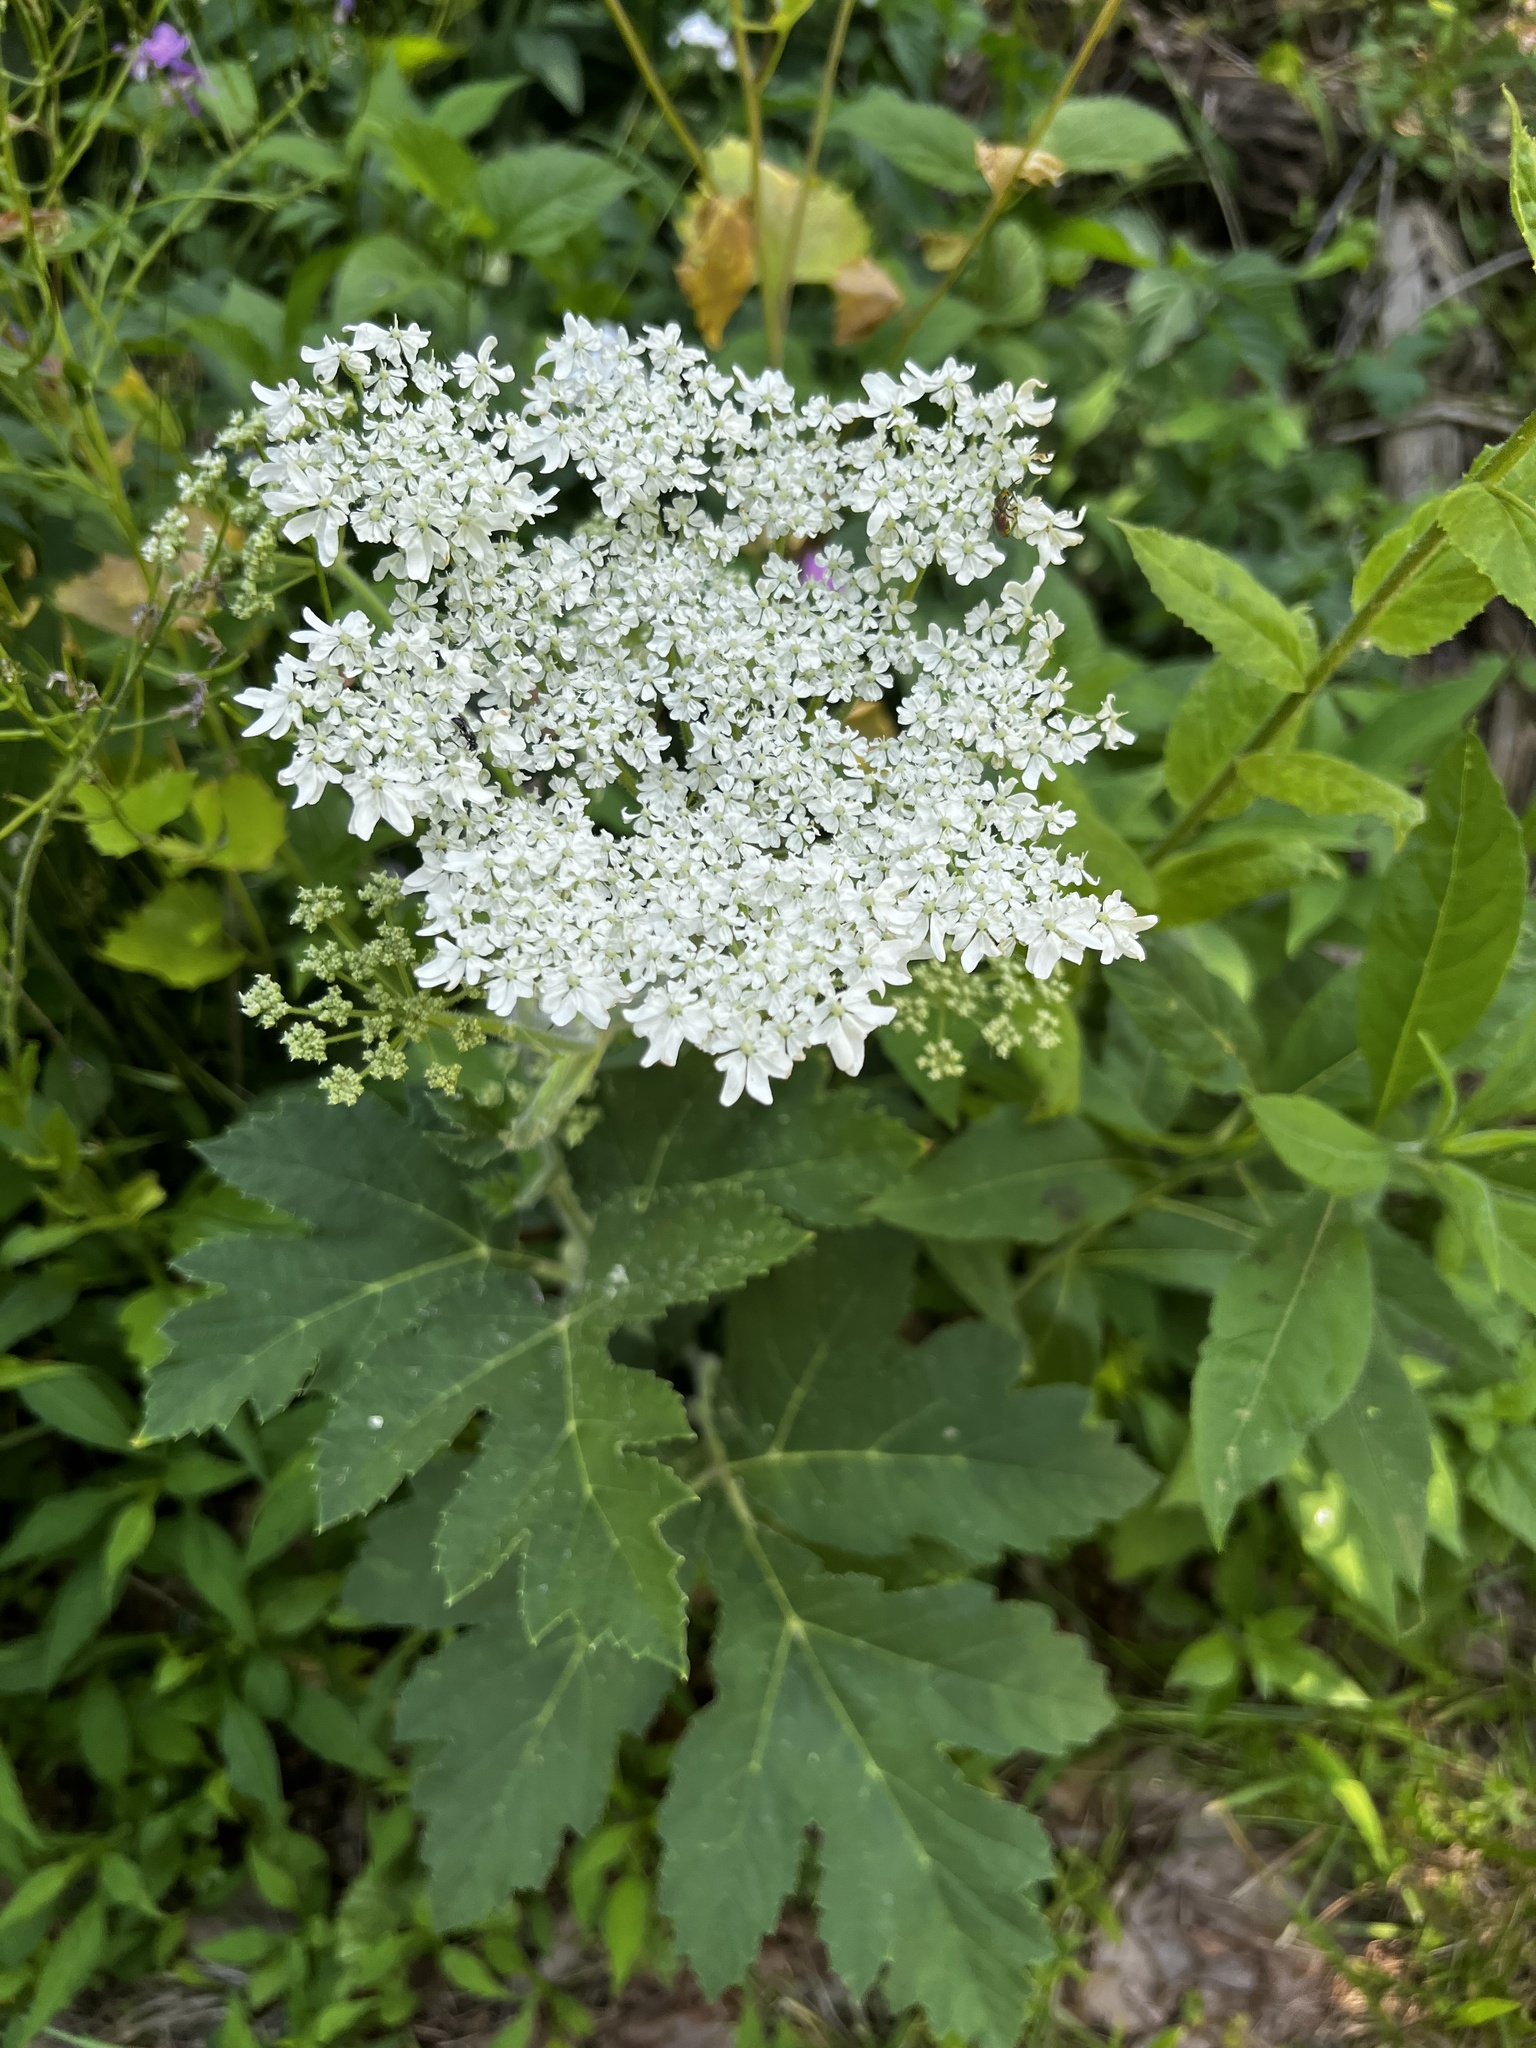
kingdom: Plantae
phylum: Tracheophyta
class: Magnoliopsida
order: Apiales
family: Apiaceae
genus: Heracleum
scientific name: Heracleum maximum
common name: American cow parsnip
